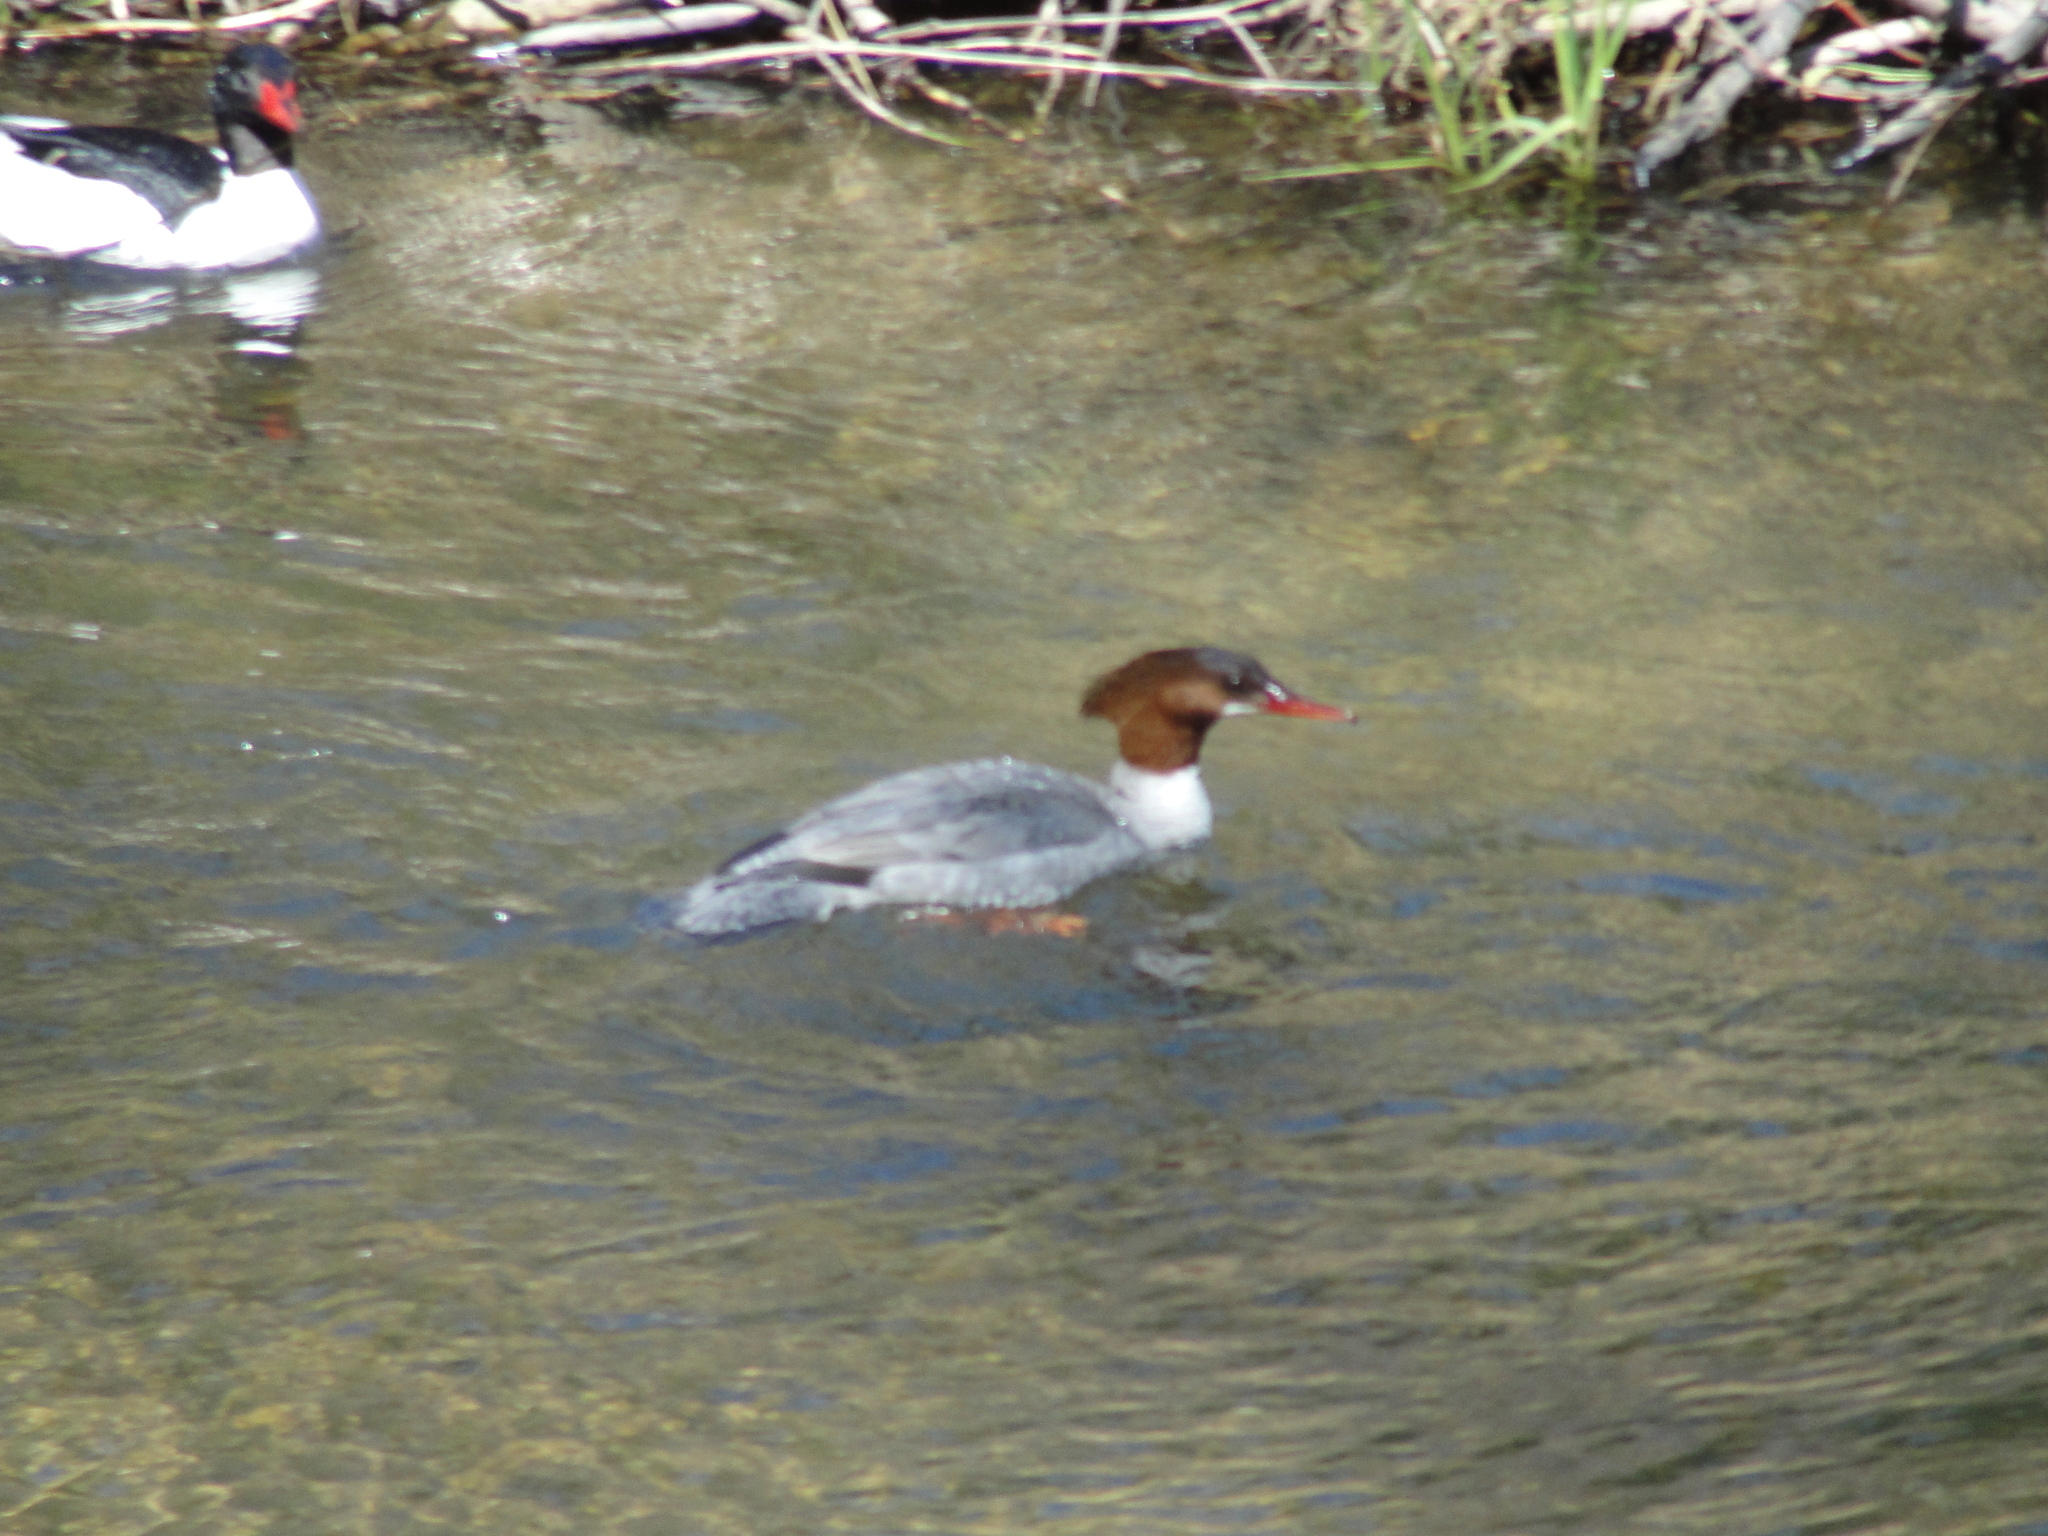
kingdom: Animalia
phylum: Chordata
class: Aves
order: Anseriformes
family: Anatidae
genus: Mergus
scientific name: Mergus merganser
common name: Common merganser
